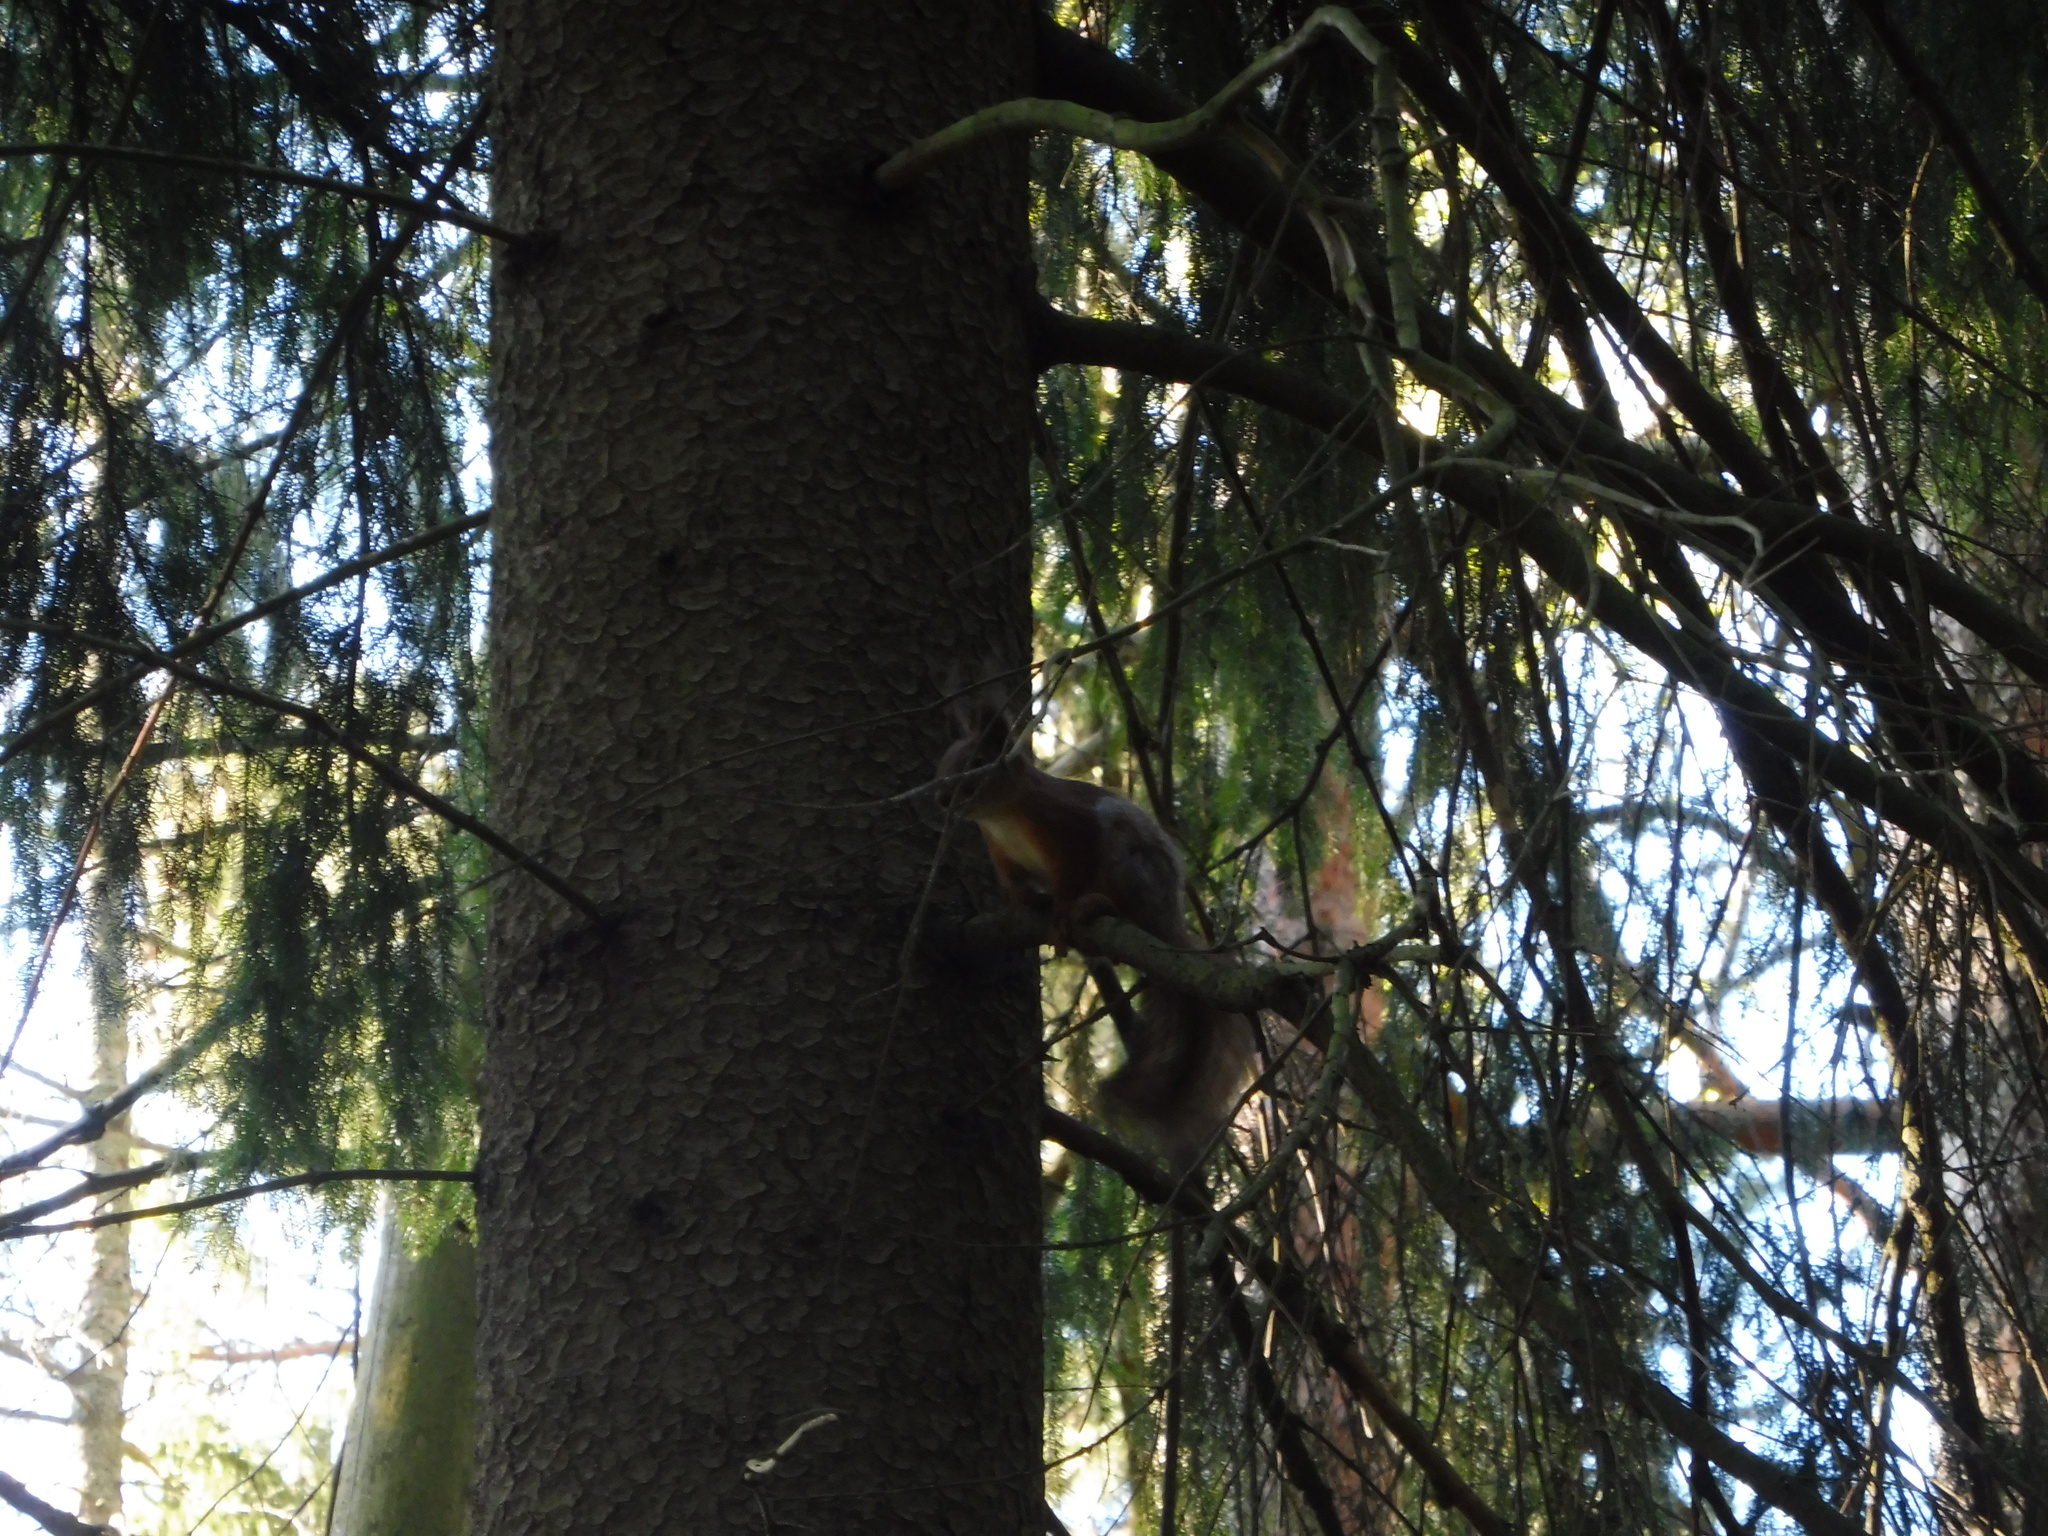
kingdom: Animalia
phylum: Chordata
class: Mammalia
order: Rodentia
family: Sciuridae
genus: Sciurus
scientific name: Sciurus vulgaris
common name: Eurasian red squirrel
